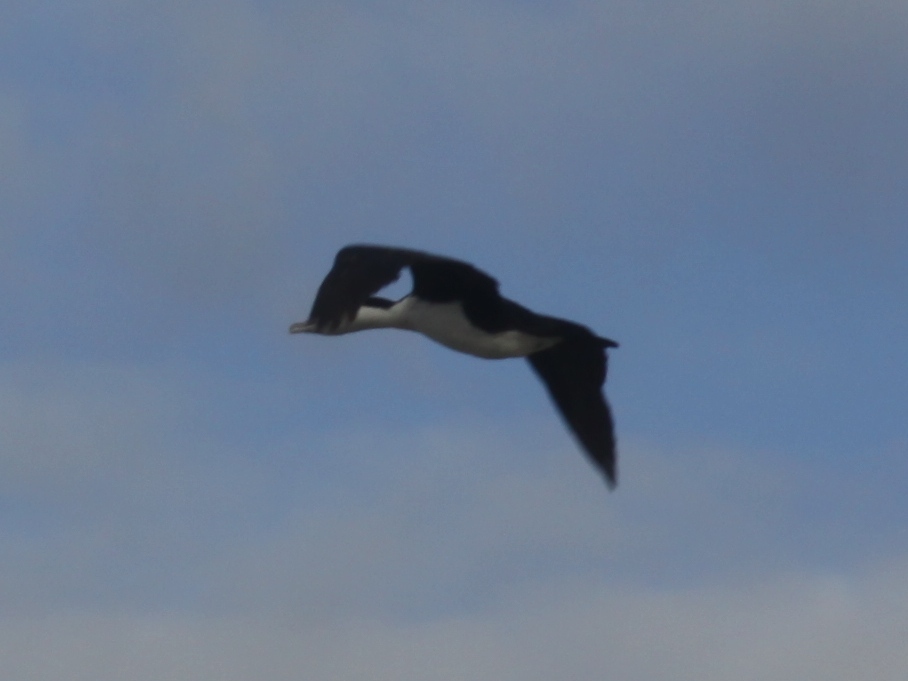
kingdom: Animalia
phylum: Chordata
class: Aves
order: Suliformes
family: Phalacrocoracidae
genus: Phalacrocorax
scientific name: Phalacrocorax varius
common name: Pied cormorant
